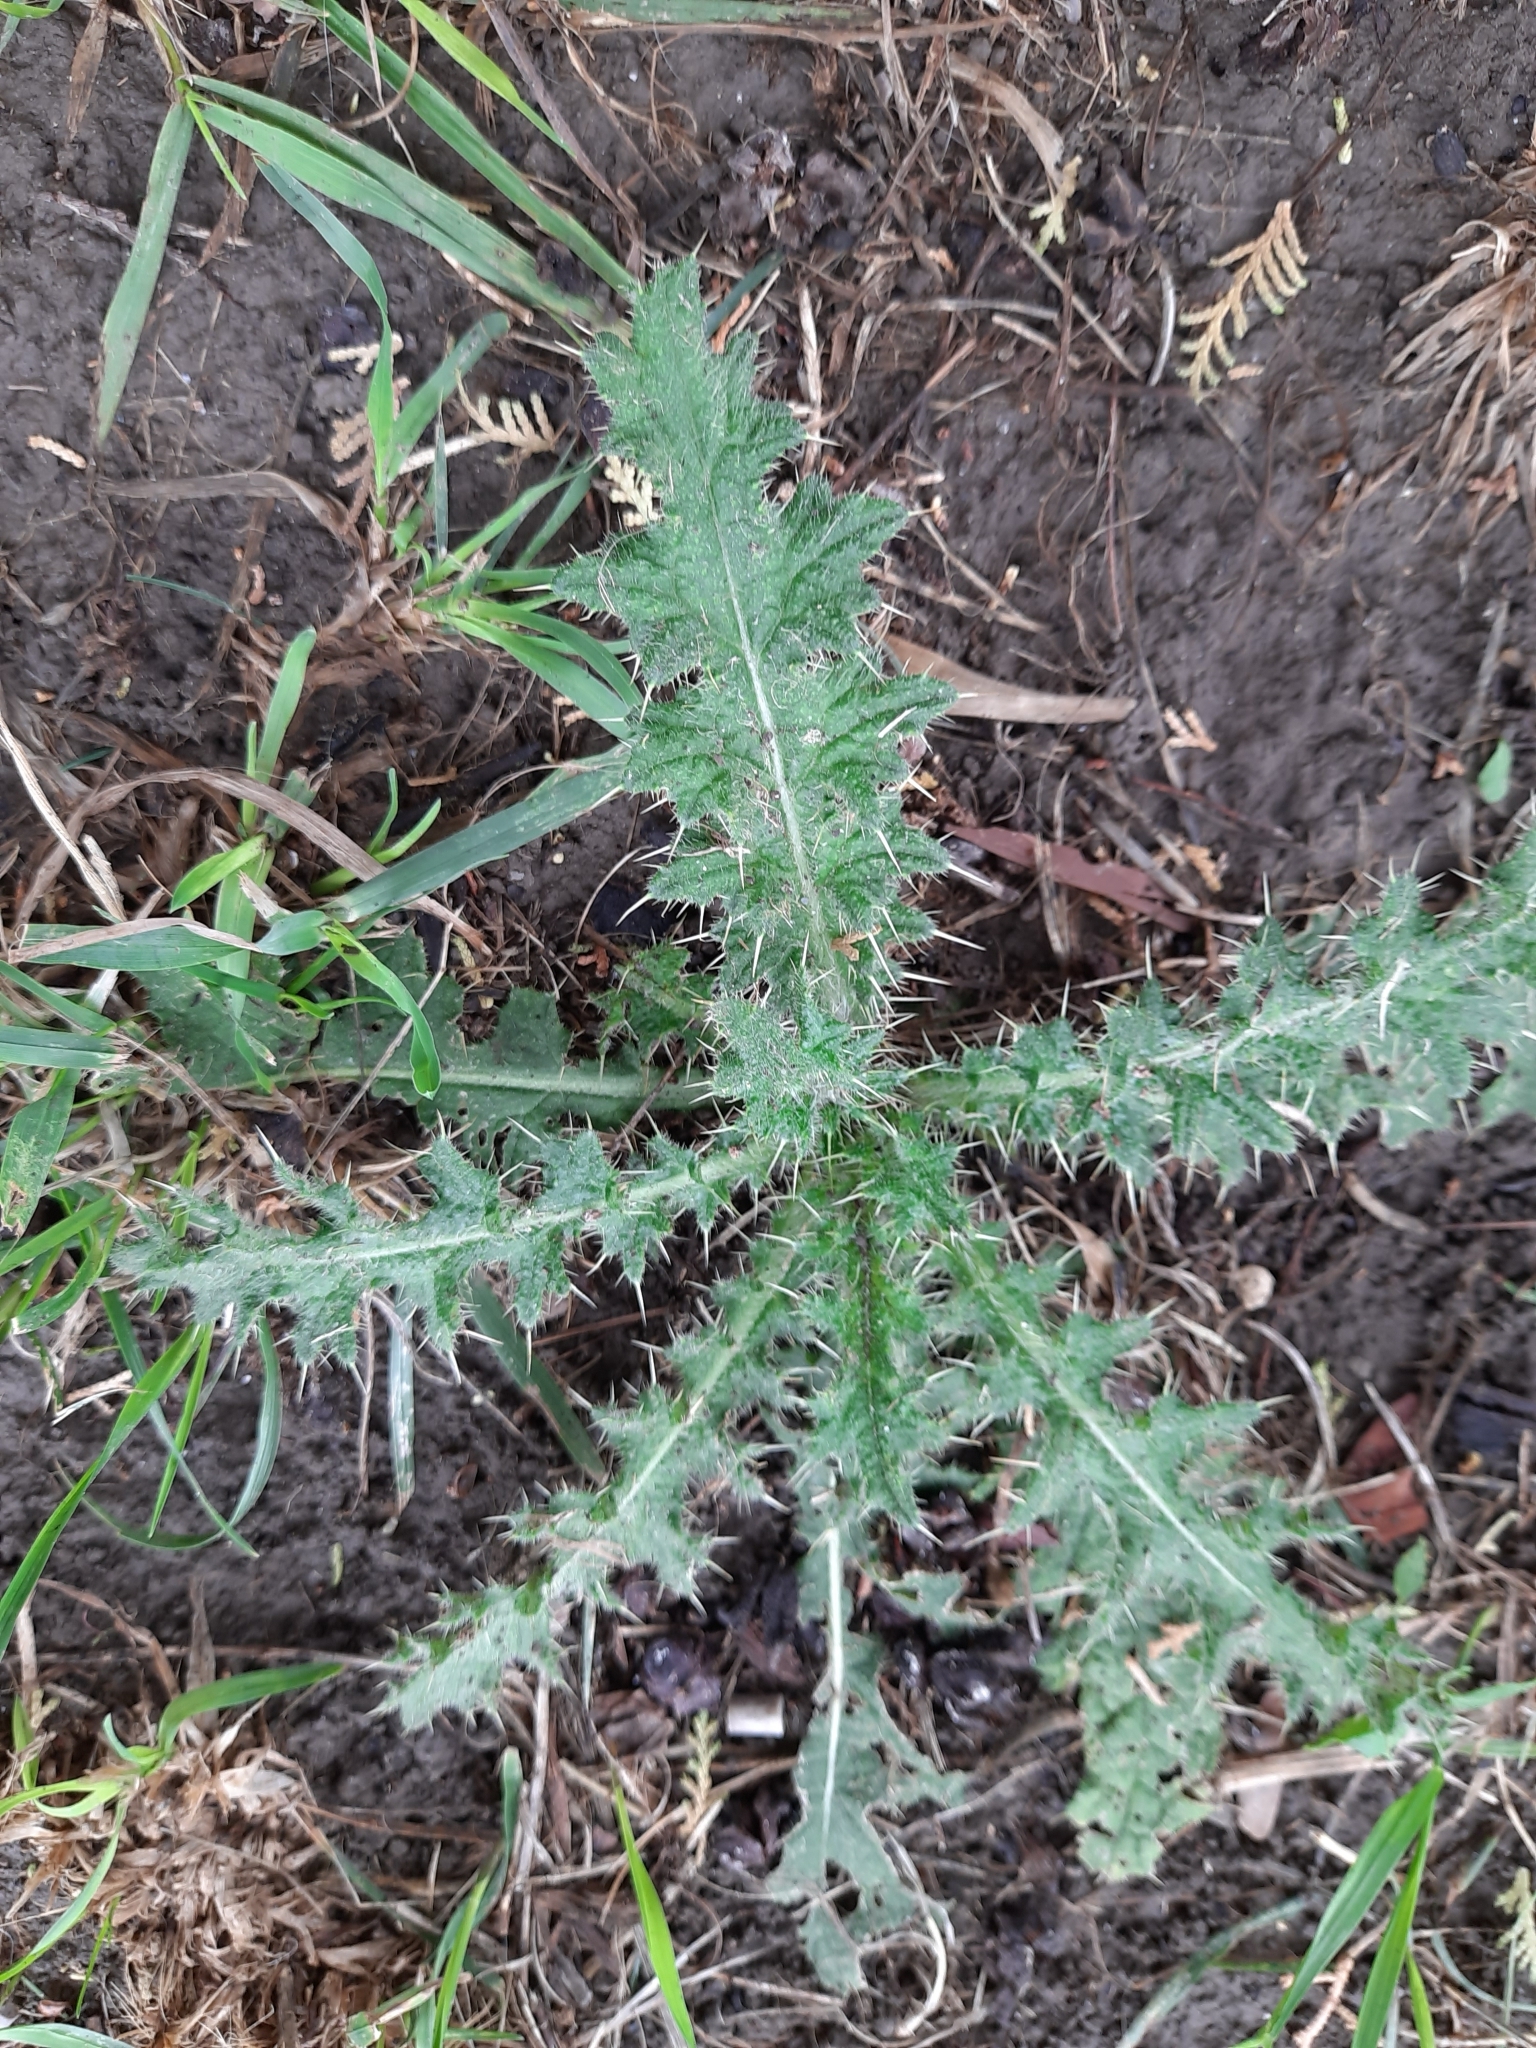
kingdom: Plantae
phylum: Tracheophyta
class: Magnoliopsida
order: Asterales
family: Asteraceae
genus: Cirsium
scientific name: Cirsium vulgare
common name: Bull thistle
